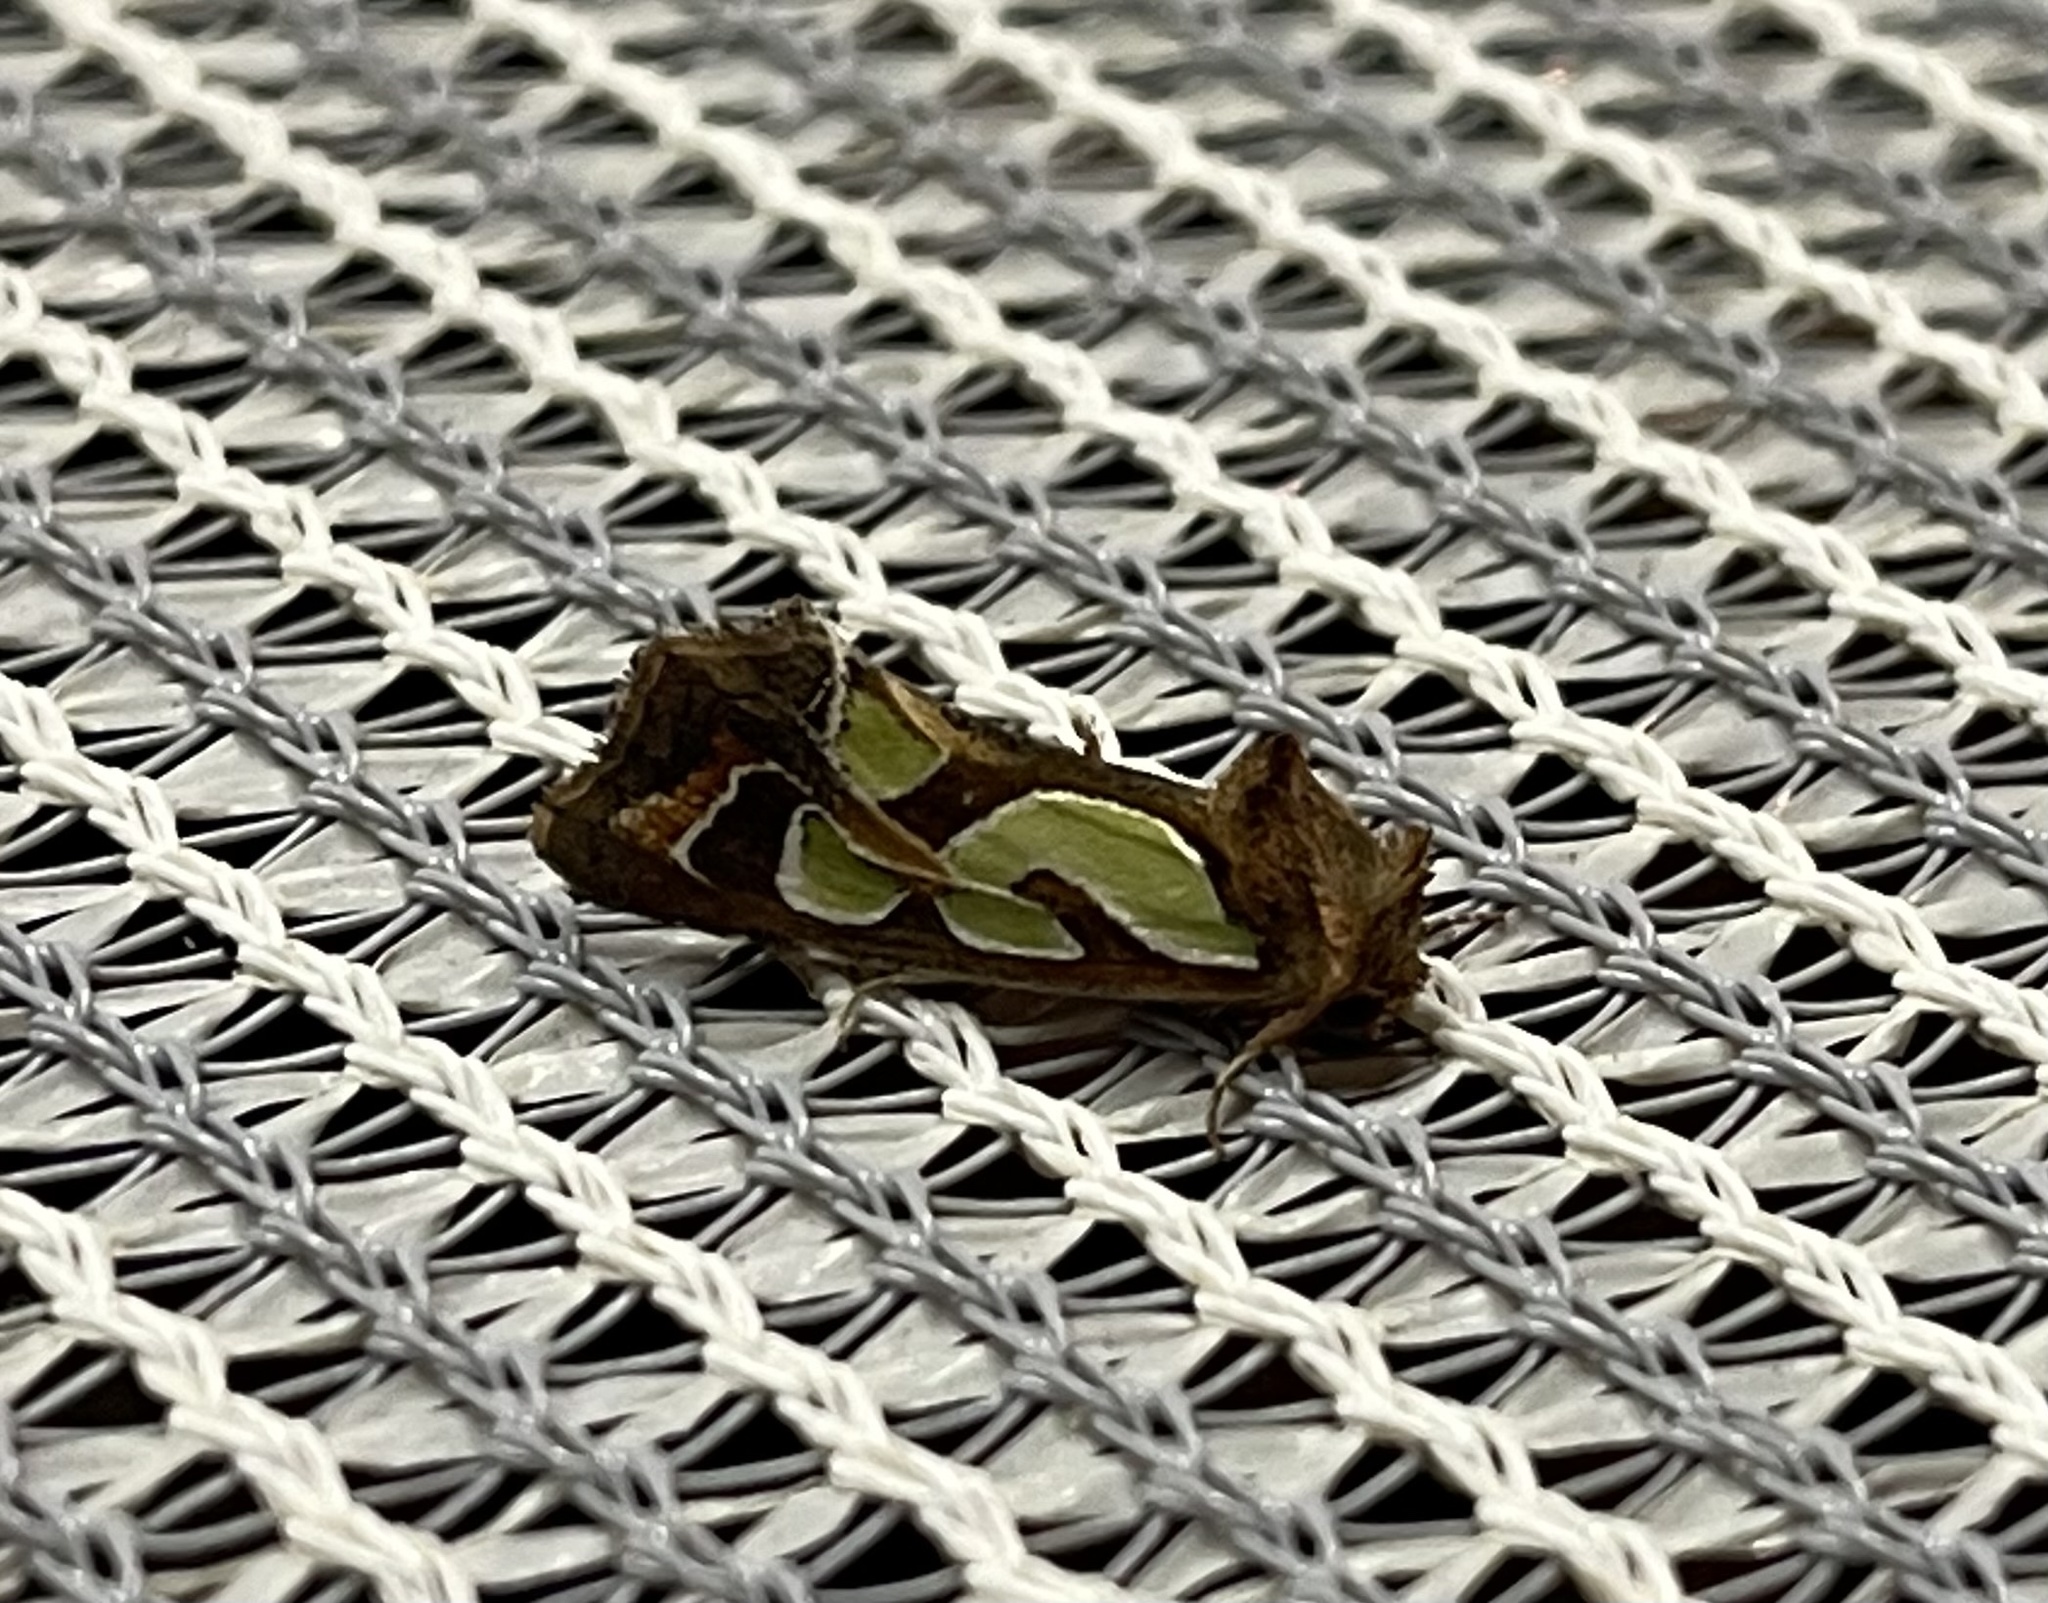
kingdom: Animalia
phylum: Arthropoda
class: Insecta
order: Lepidoptera
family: Noctuidae
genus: Cosmodes
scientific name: Cosmodes elegans
